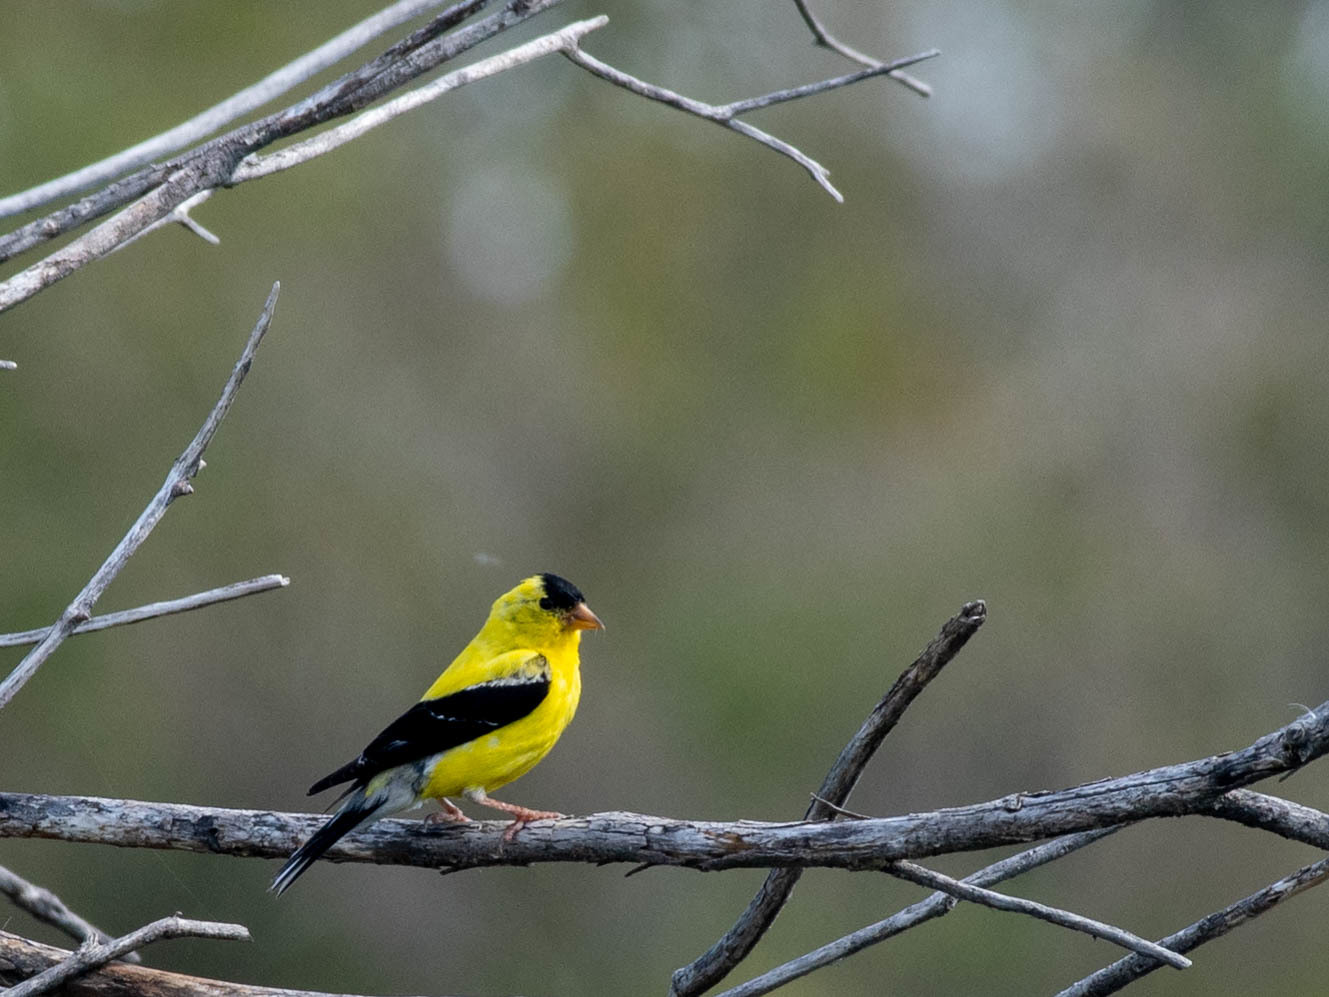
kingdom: Animalia
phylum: Chordata
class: Aves
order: Passeriformes
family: Fringillidae
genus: Spinus
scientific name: Spinus tristis
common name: American goldfinch
